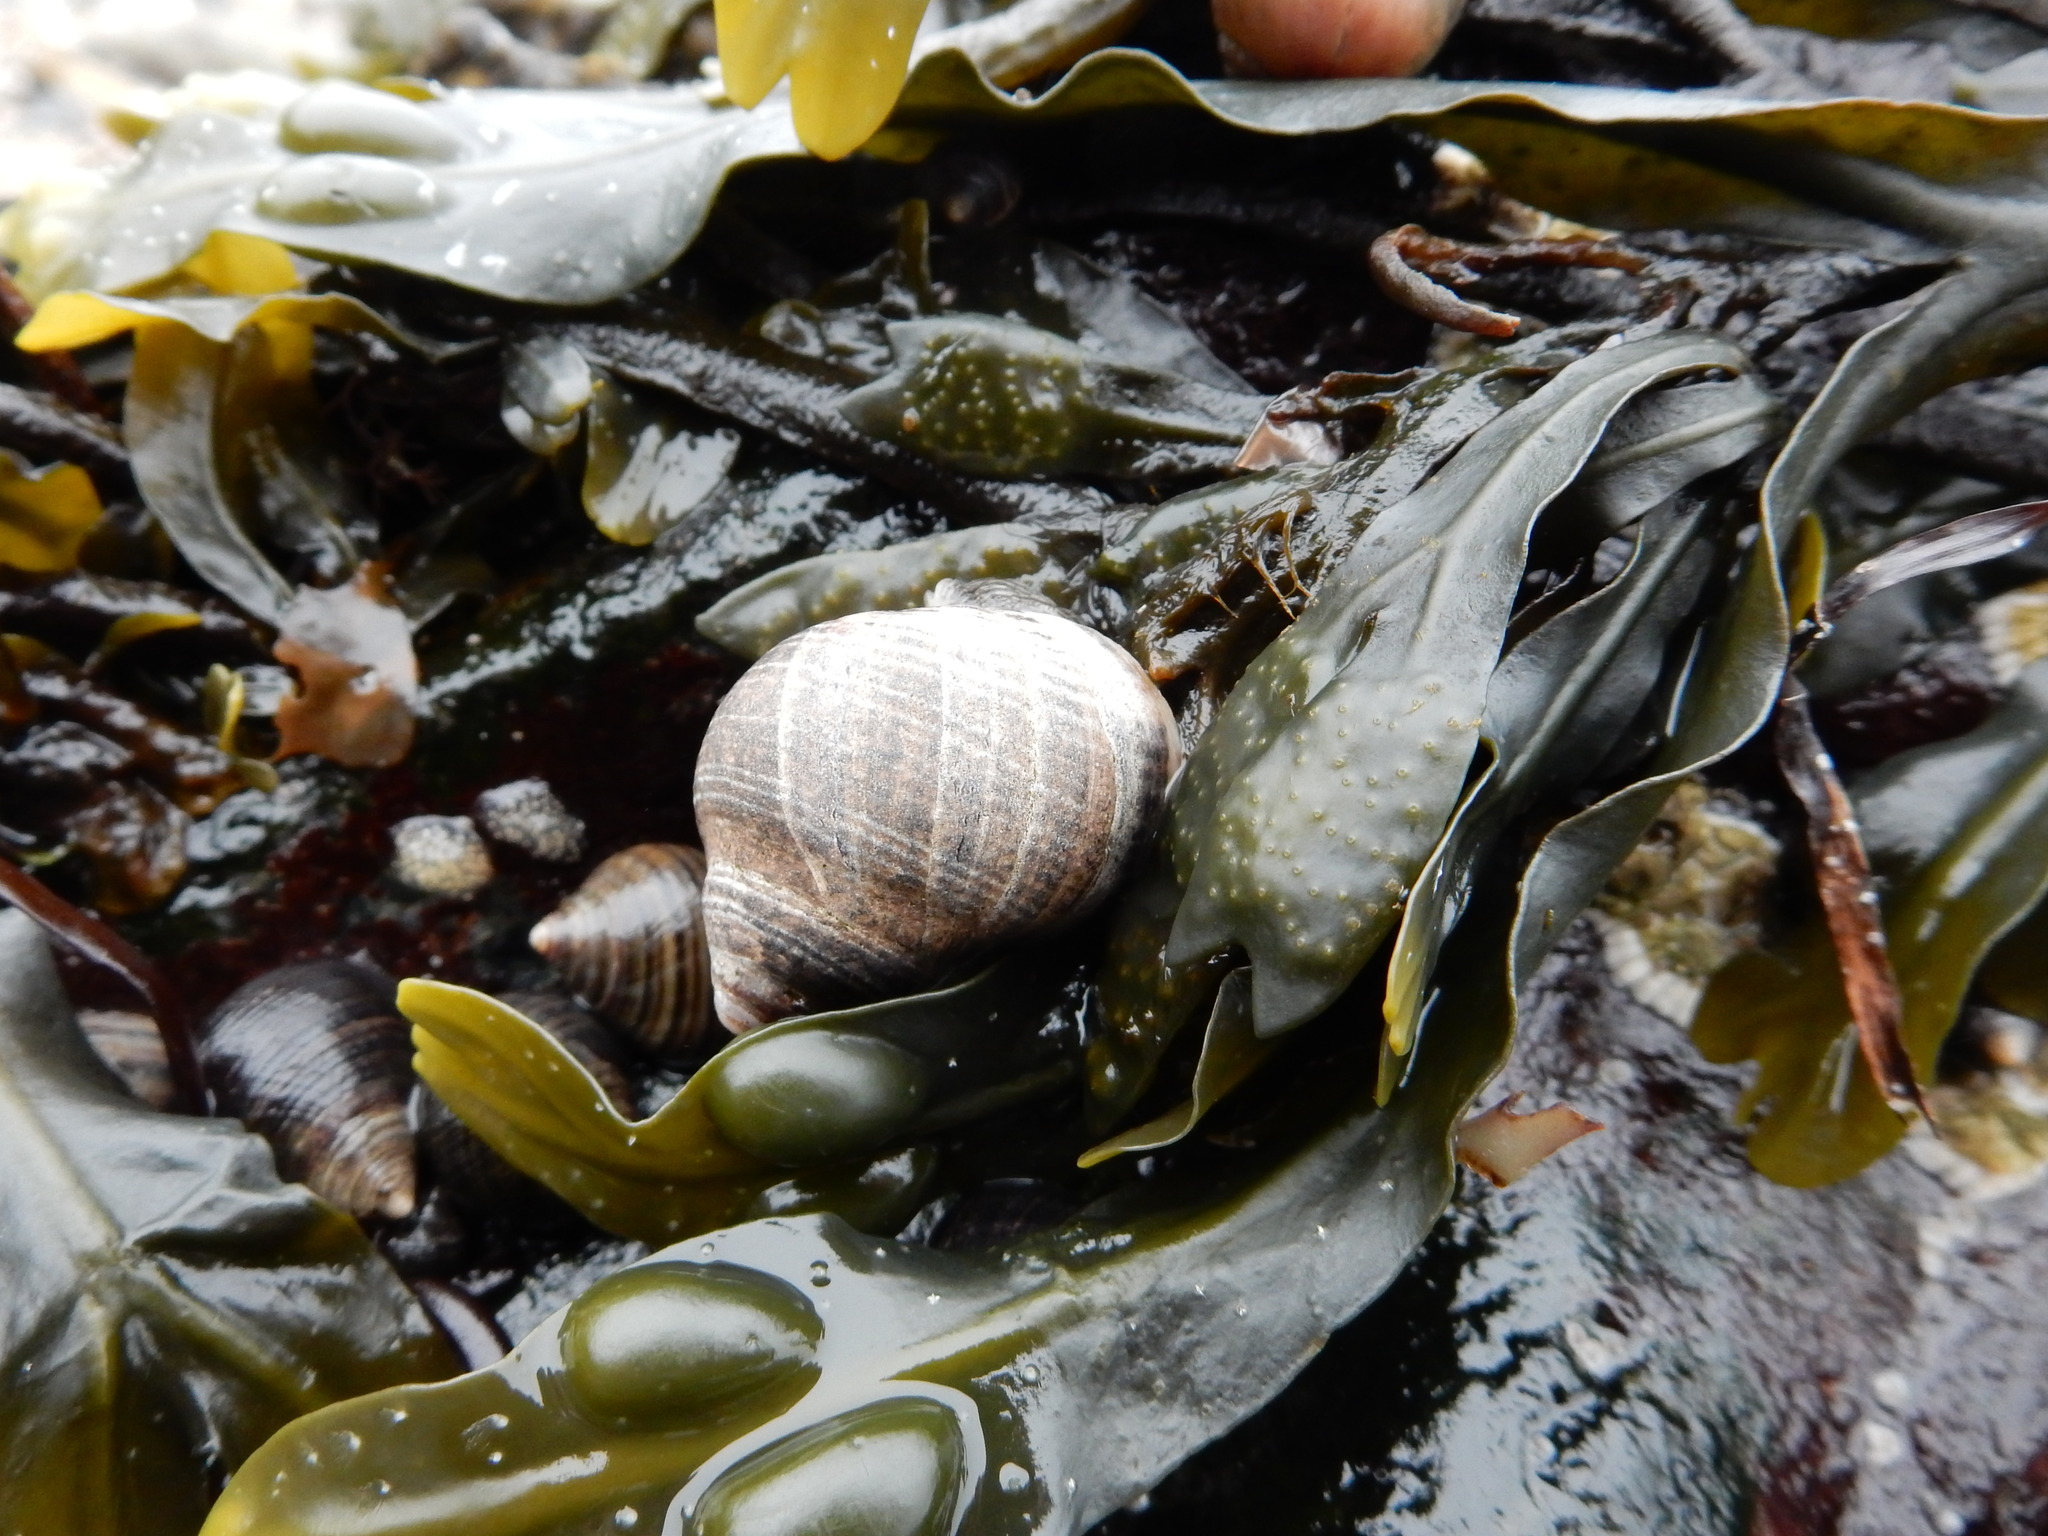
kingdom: Animalia
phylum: Mollusca
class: Gastropoda
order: Littorinimorpha
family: Littorinidae
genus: Littorina
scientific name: Littorina littorea
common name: Common periwinkle
